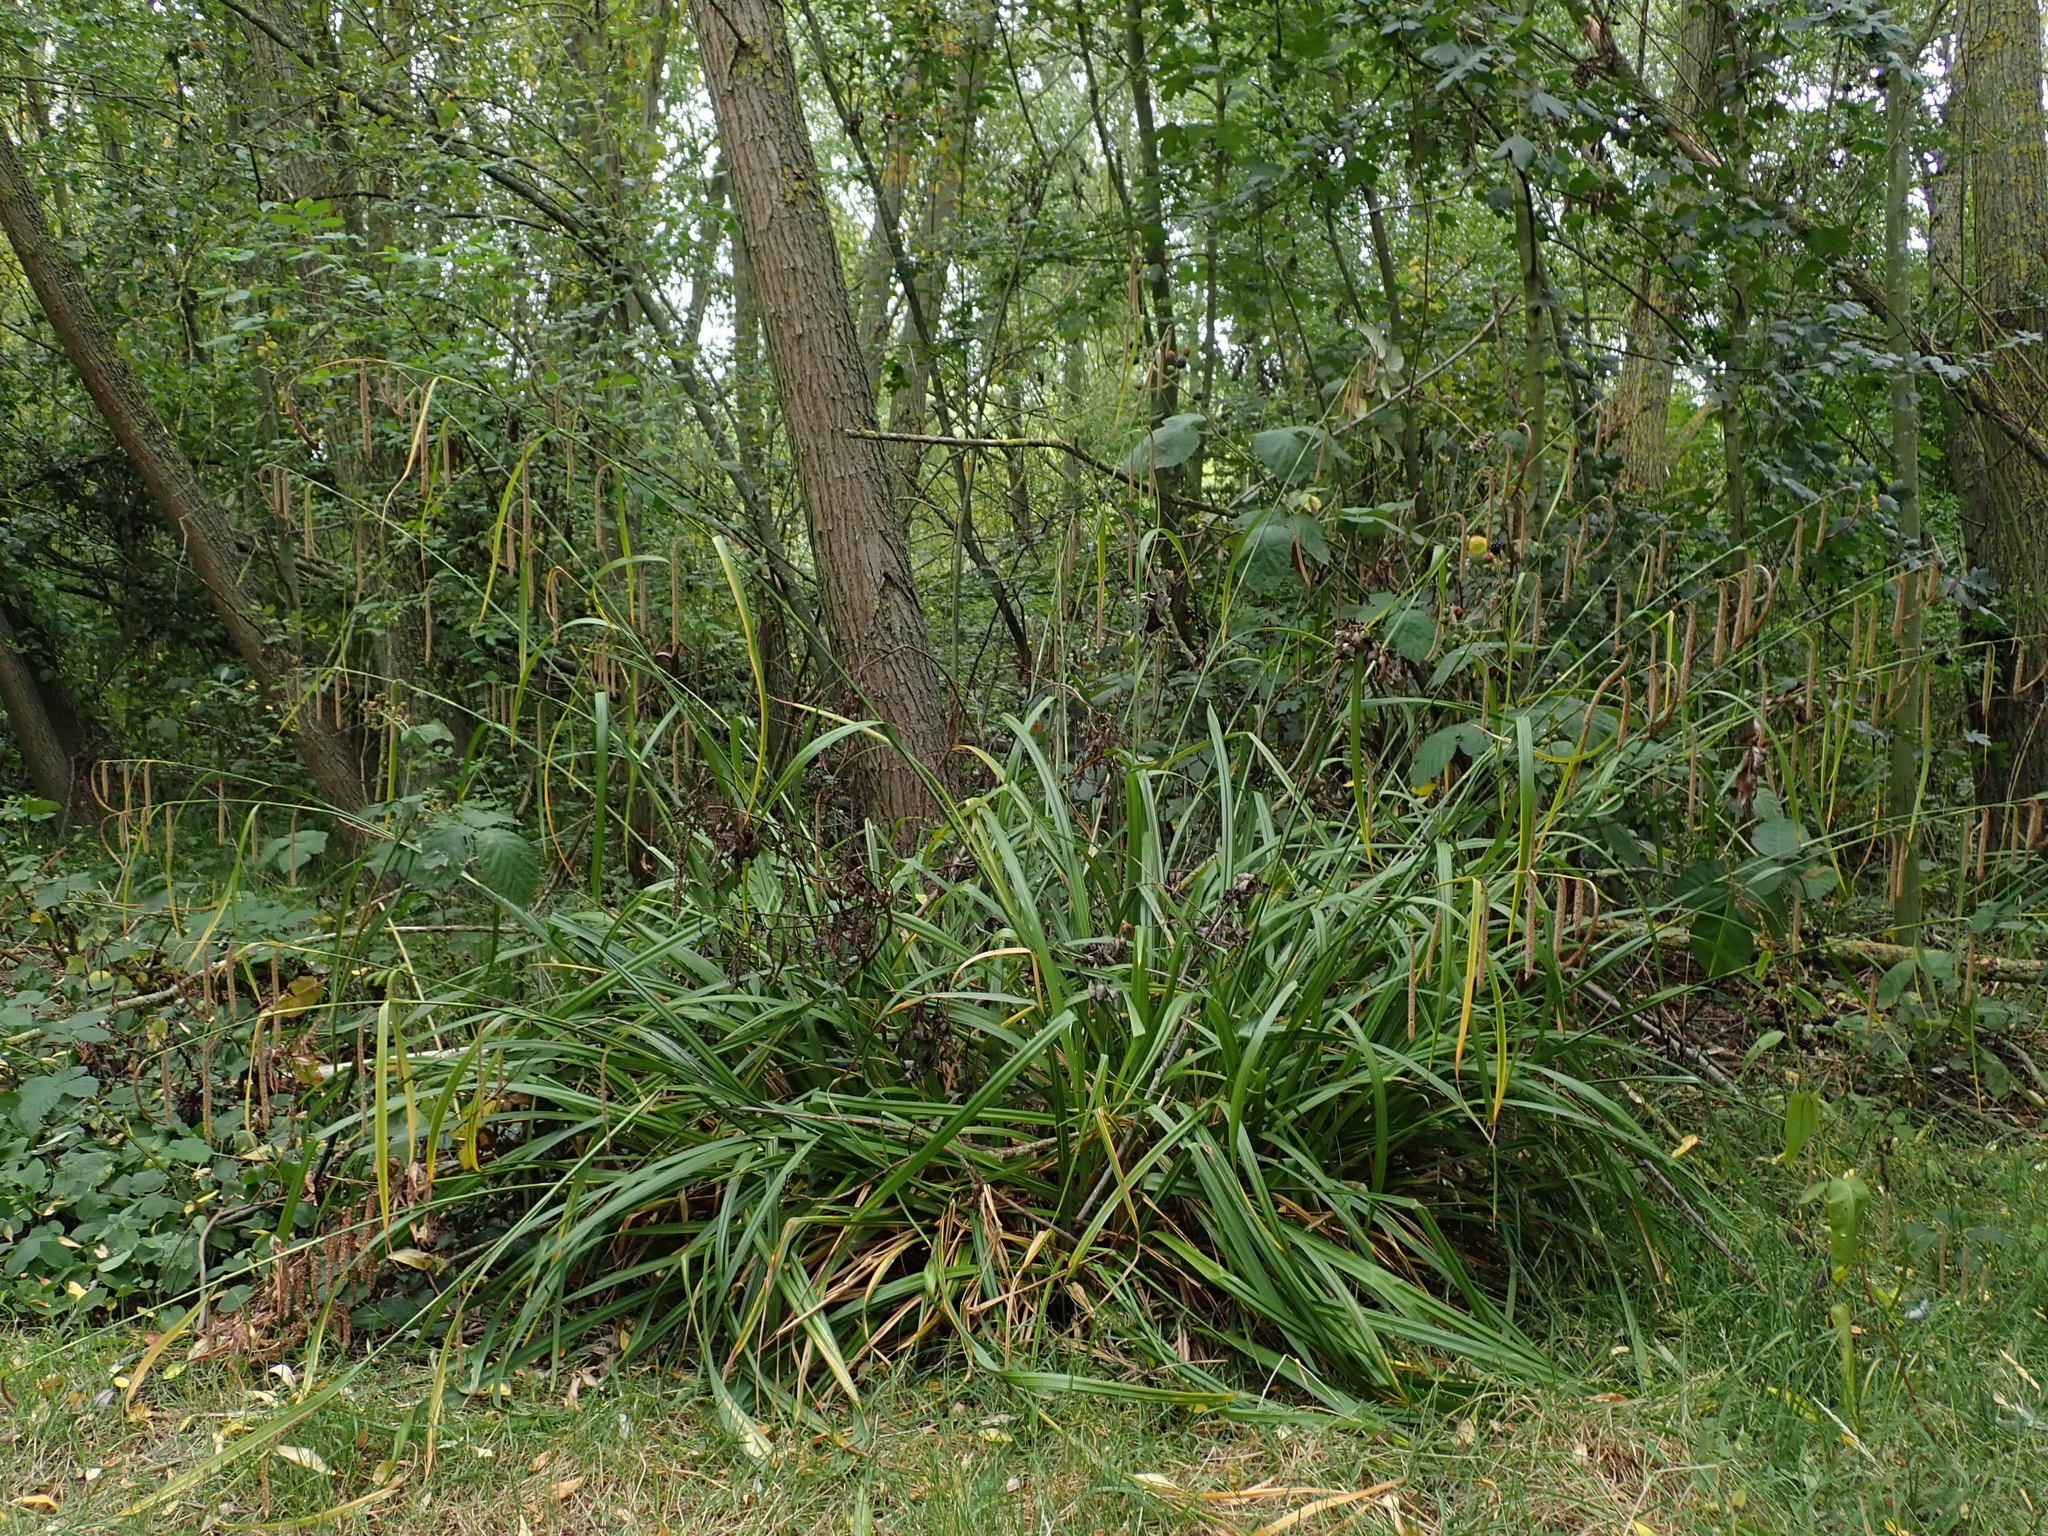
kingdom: Plantae
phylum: Tracheophyta
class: Liliopsida
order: Poales
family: Cyperaceae
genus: Carex
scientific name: Carex pendula
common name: Pendulous sedge
